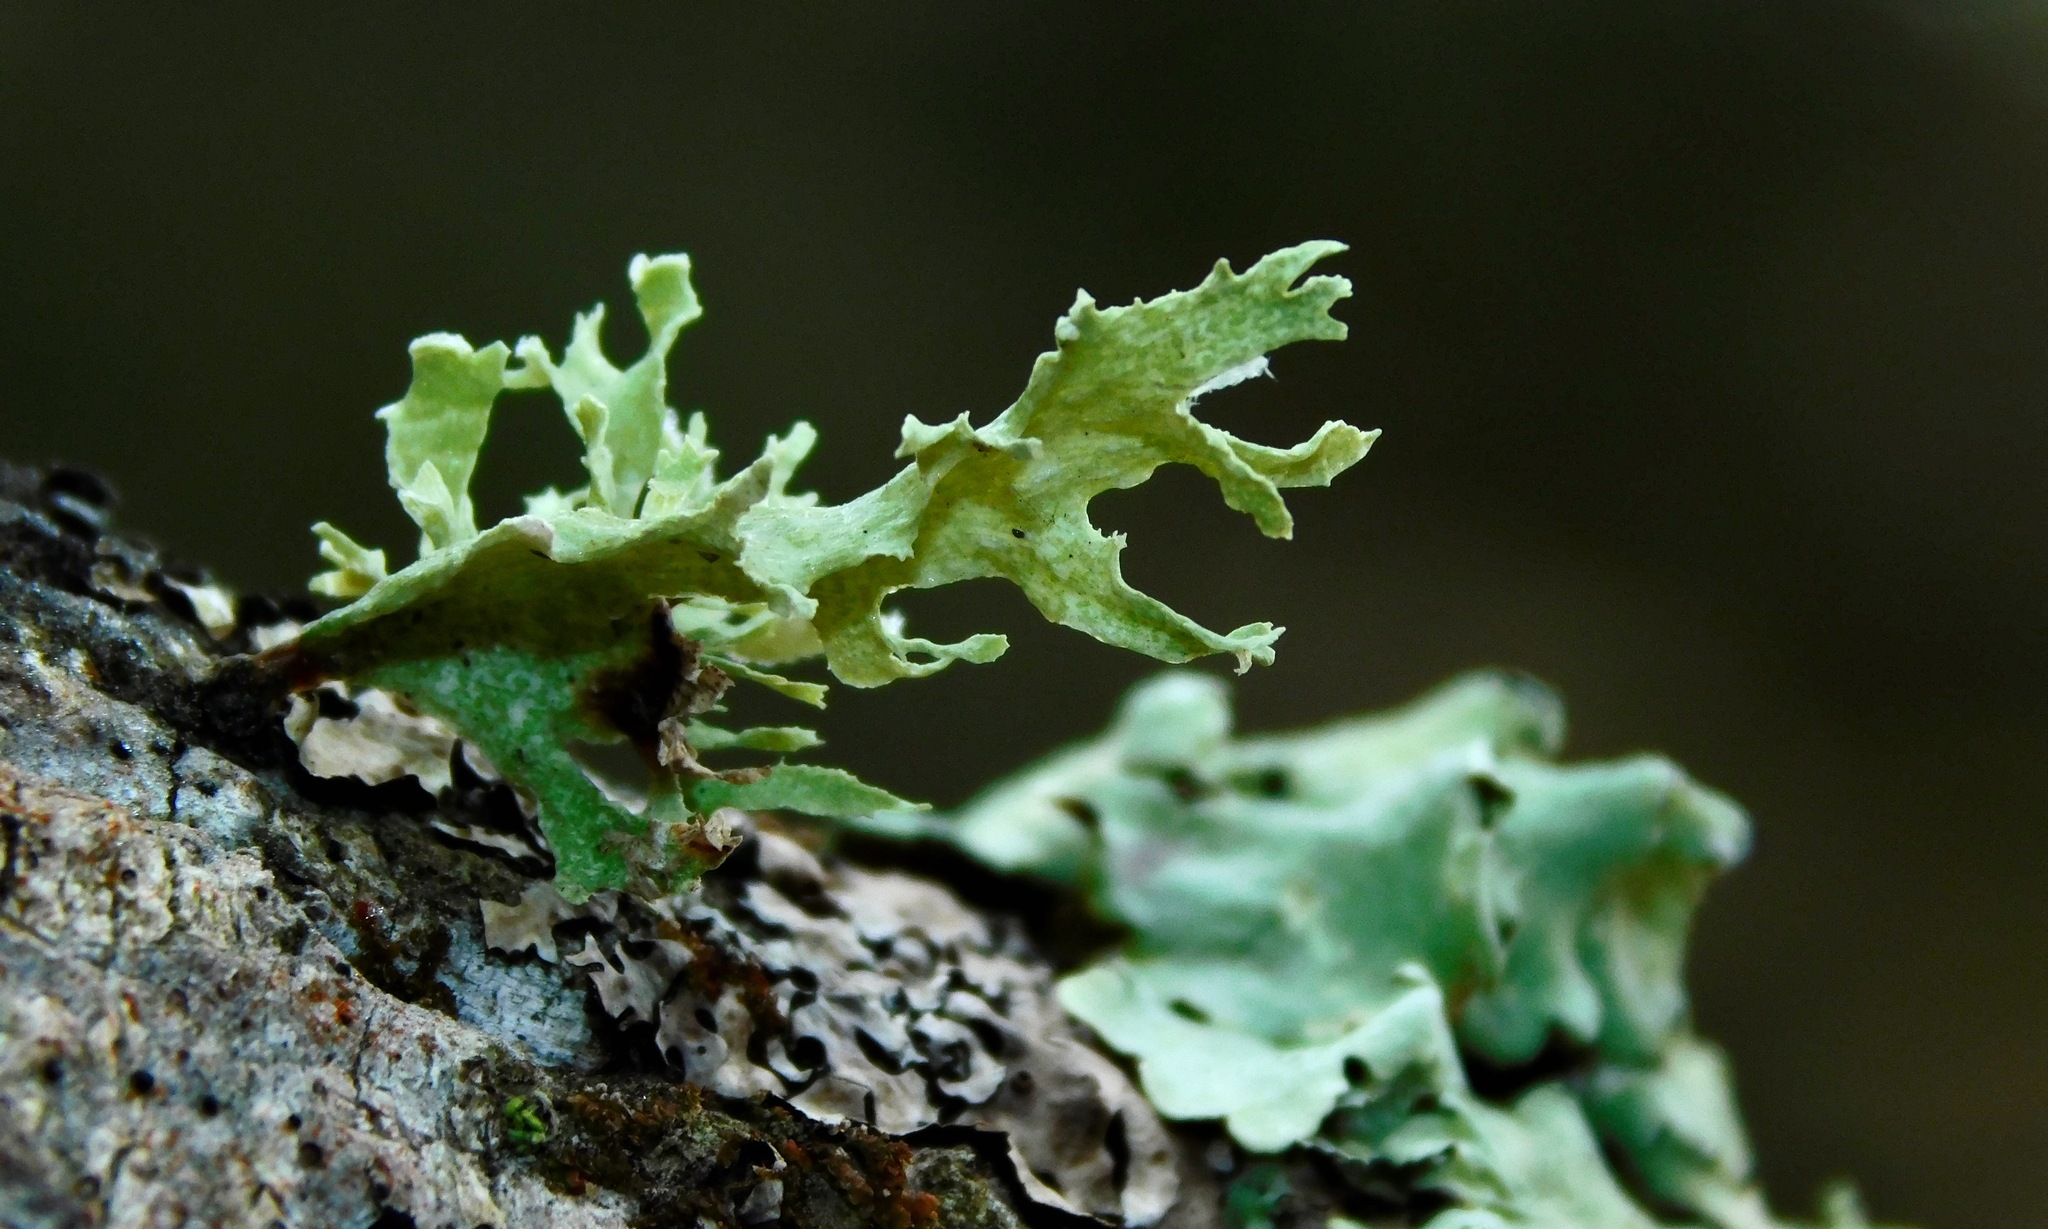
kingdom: Fungi
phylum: Ascomycota
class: Lecanoromycetes
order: Lecanorales
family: Ramalinaceae
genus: Ramalina
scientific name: Ramalina sinensis
